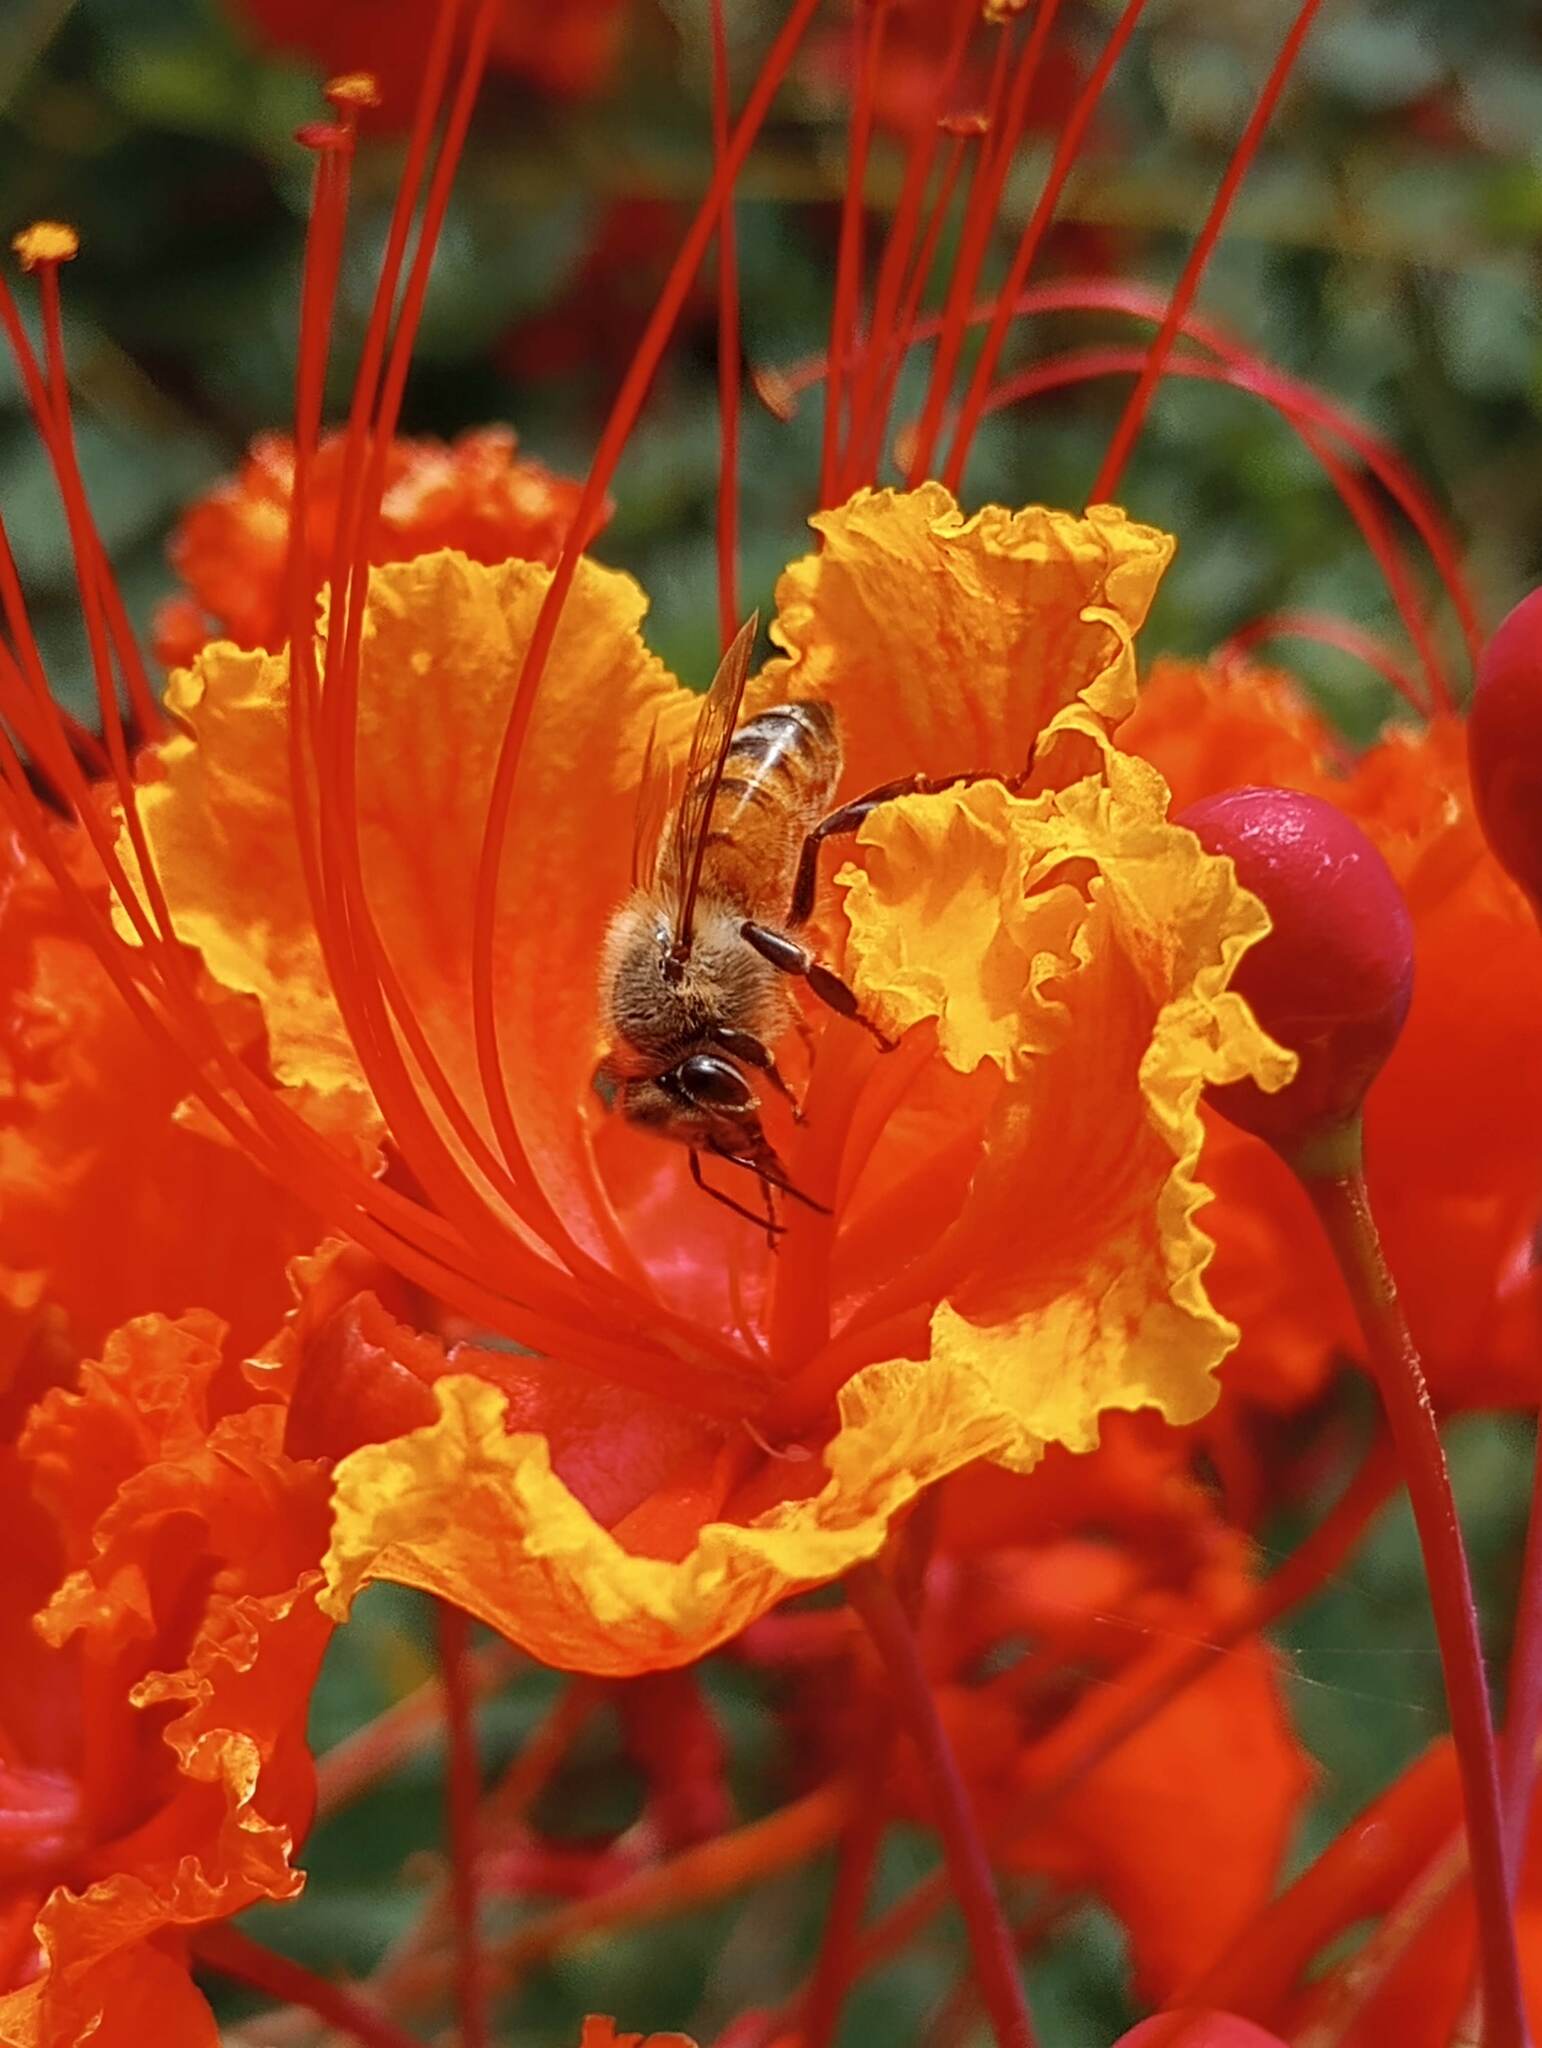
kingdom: Animalia
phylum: Arthropoda
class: Insecta
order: Hymenoptera
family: Apidae
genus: Apis
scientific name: Apis mellifera
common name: Honey bee
